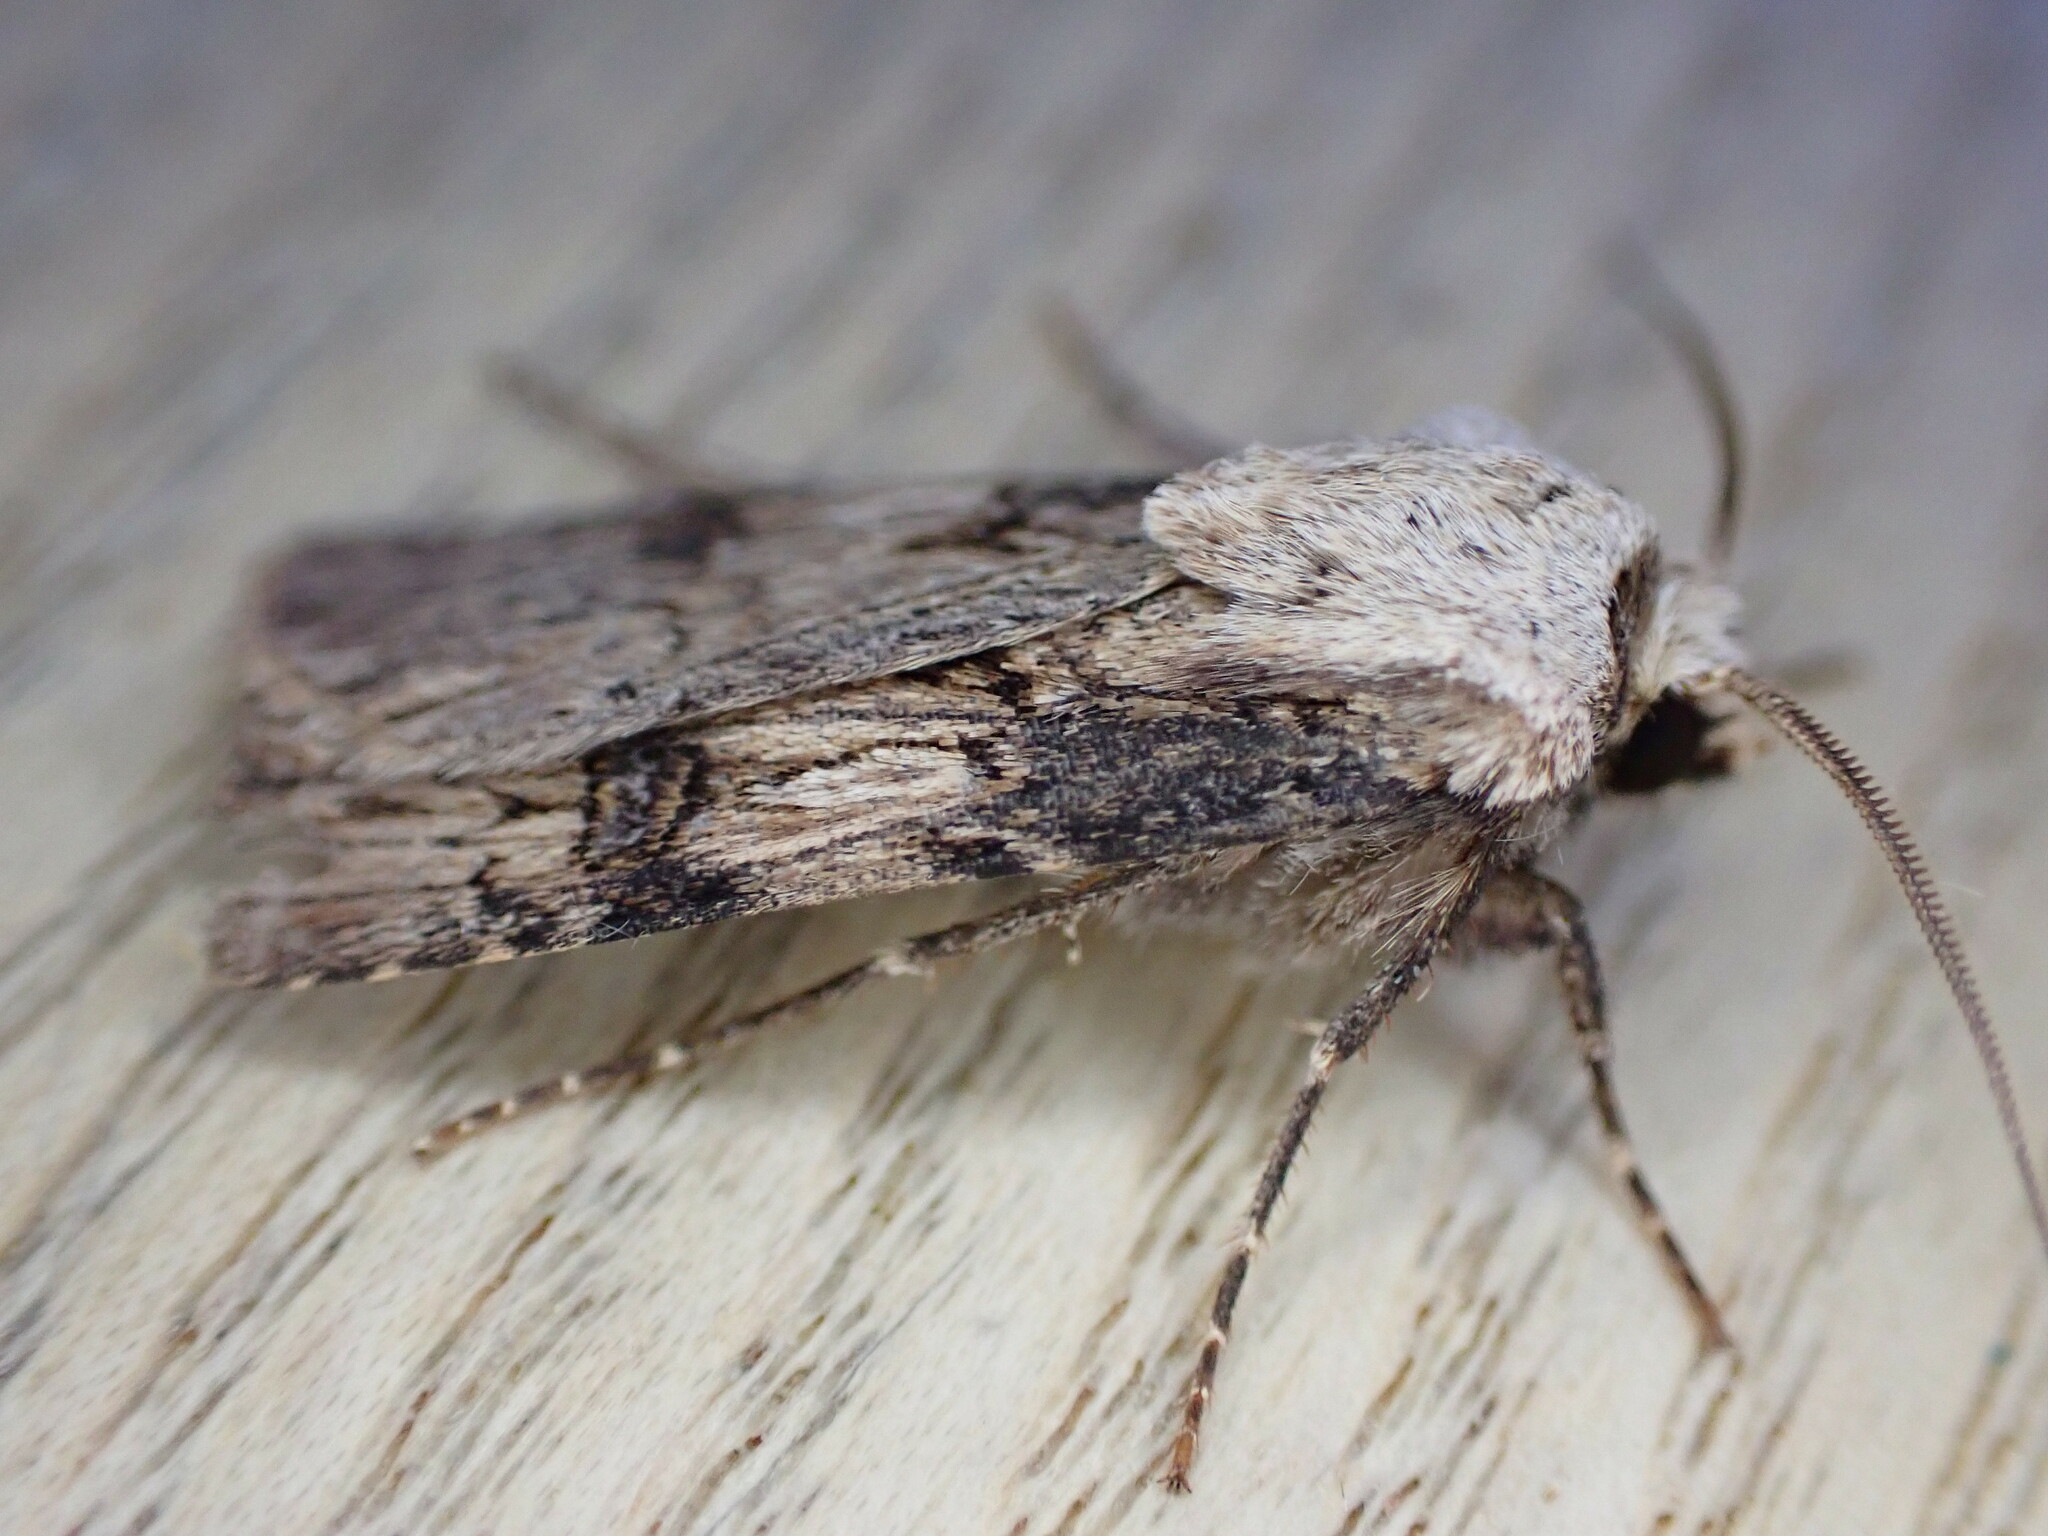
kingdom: Animalia
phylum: Arthropoda
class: Insecta
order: Lepidoptera
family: Noctuidae
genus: Agrotis
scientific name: Agrotis puta
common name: Shuttle-shaped dart
